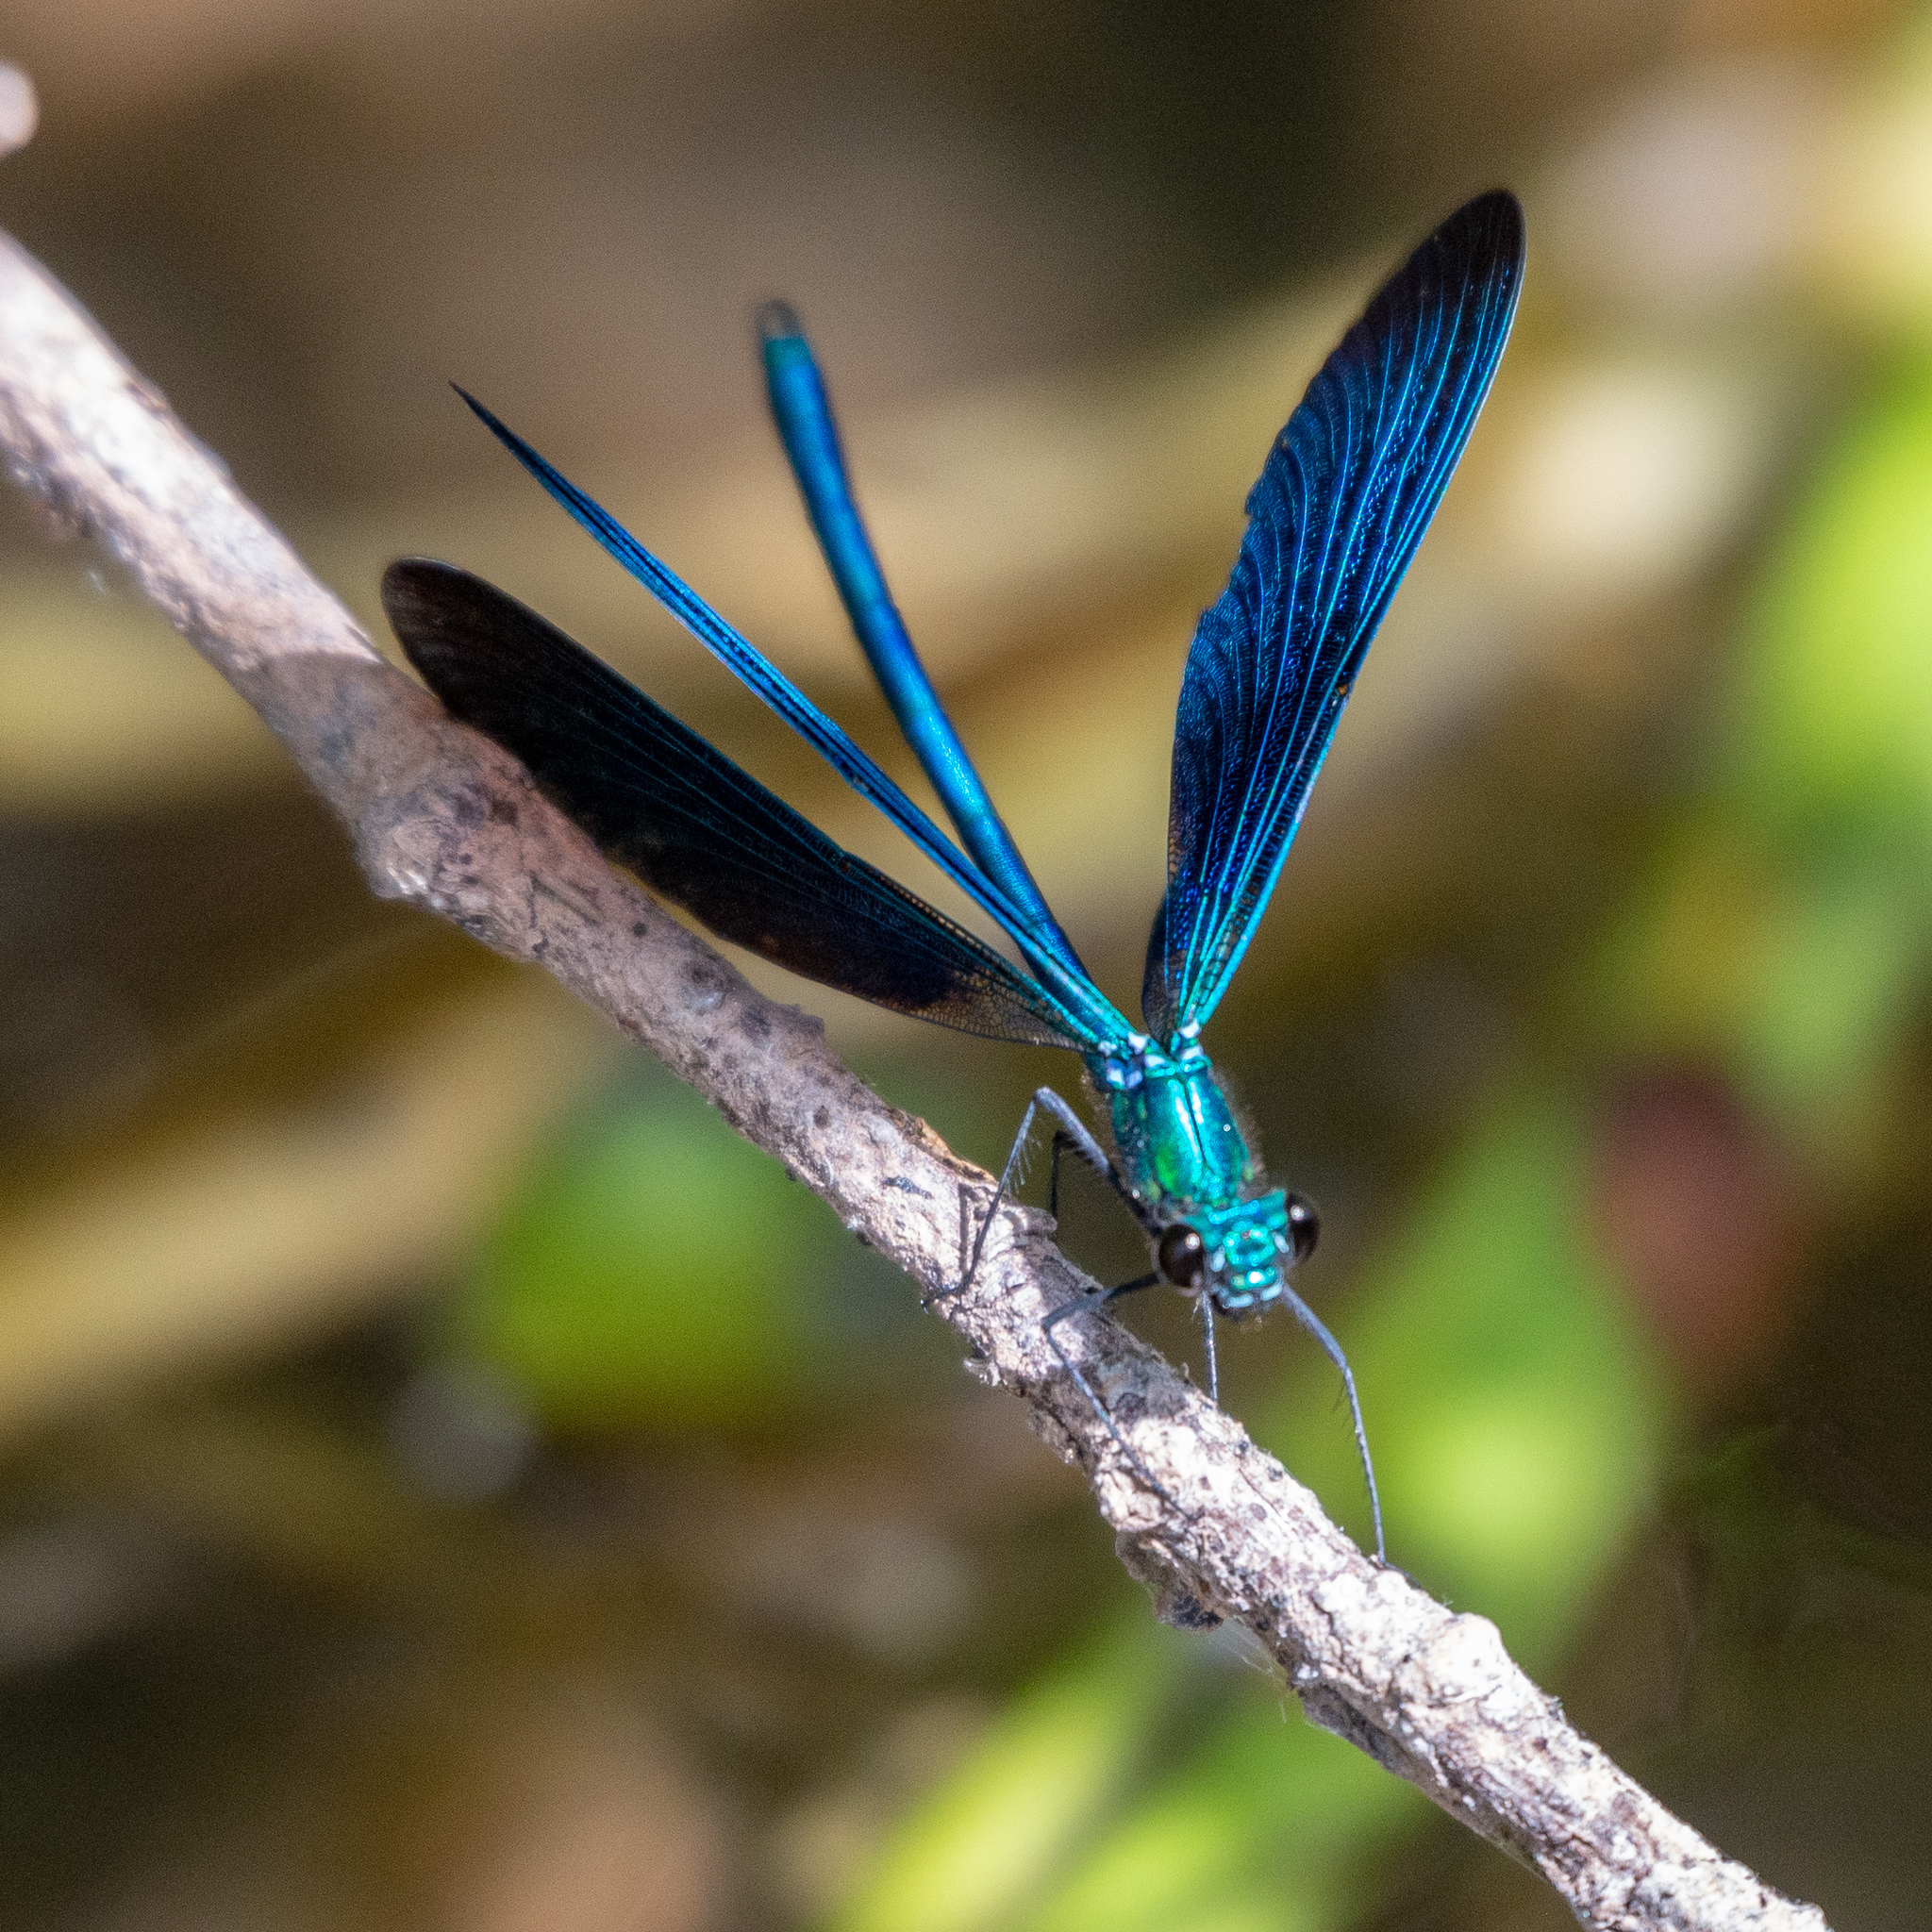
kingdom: Animalia
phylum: Arthropoda
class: Insecta
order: Odonata
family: Calopterygidae
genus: Calopteryx
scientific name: Calopteryx virgo
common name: Beautiful demoiselle
